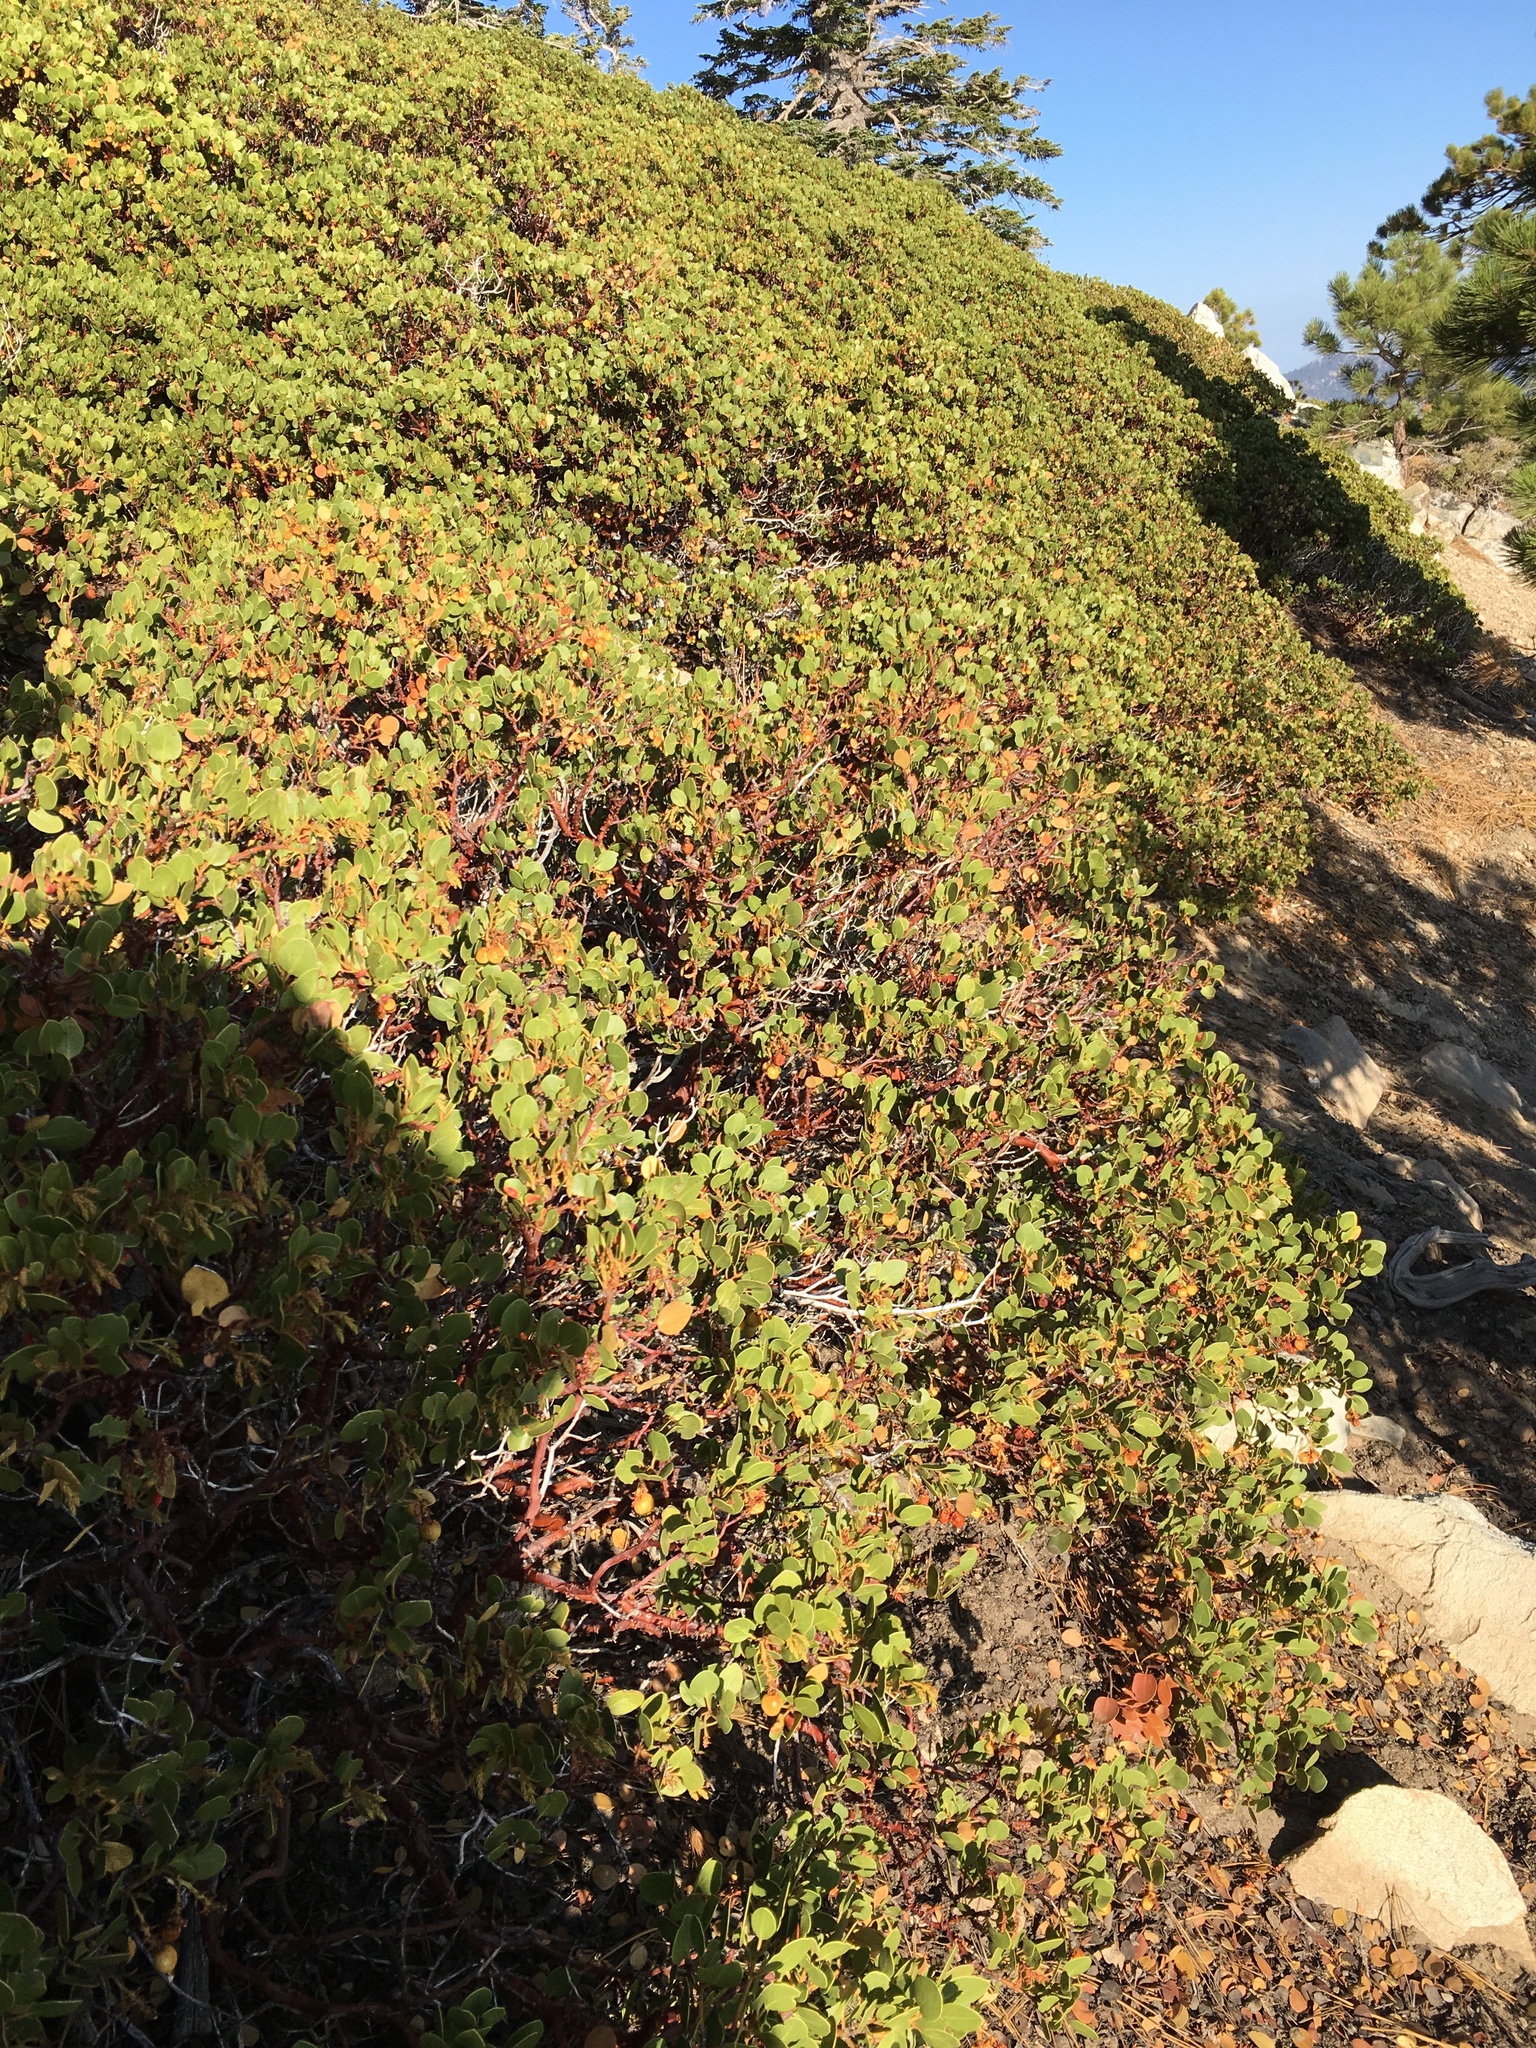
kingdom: Plantae
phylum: Tracheophyta
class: Magnoliopsida
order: Ericales
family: Ericaceae
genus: Arctostaphylos
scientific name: Arctostaphylos parryana
